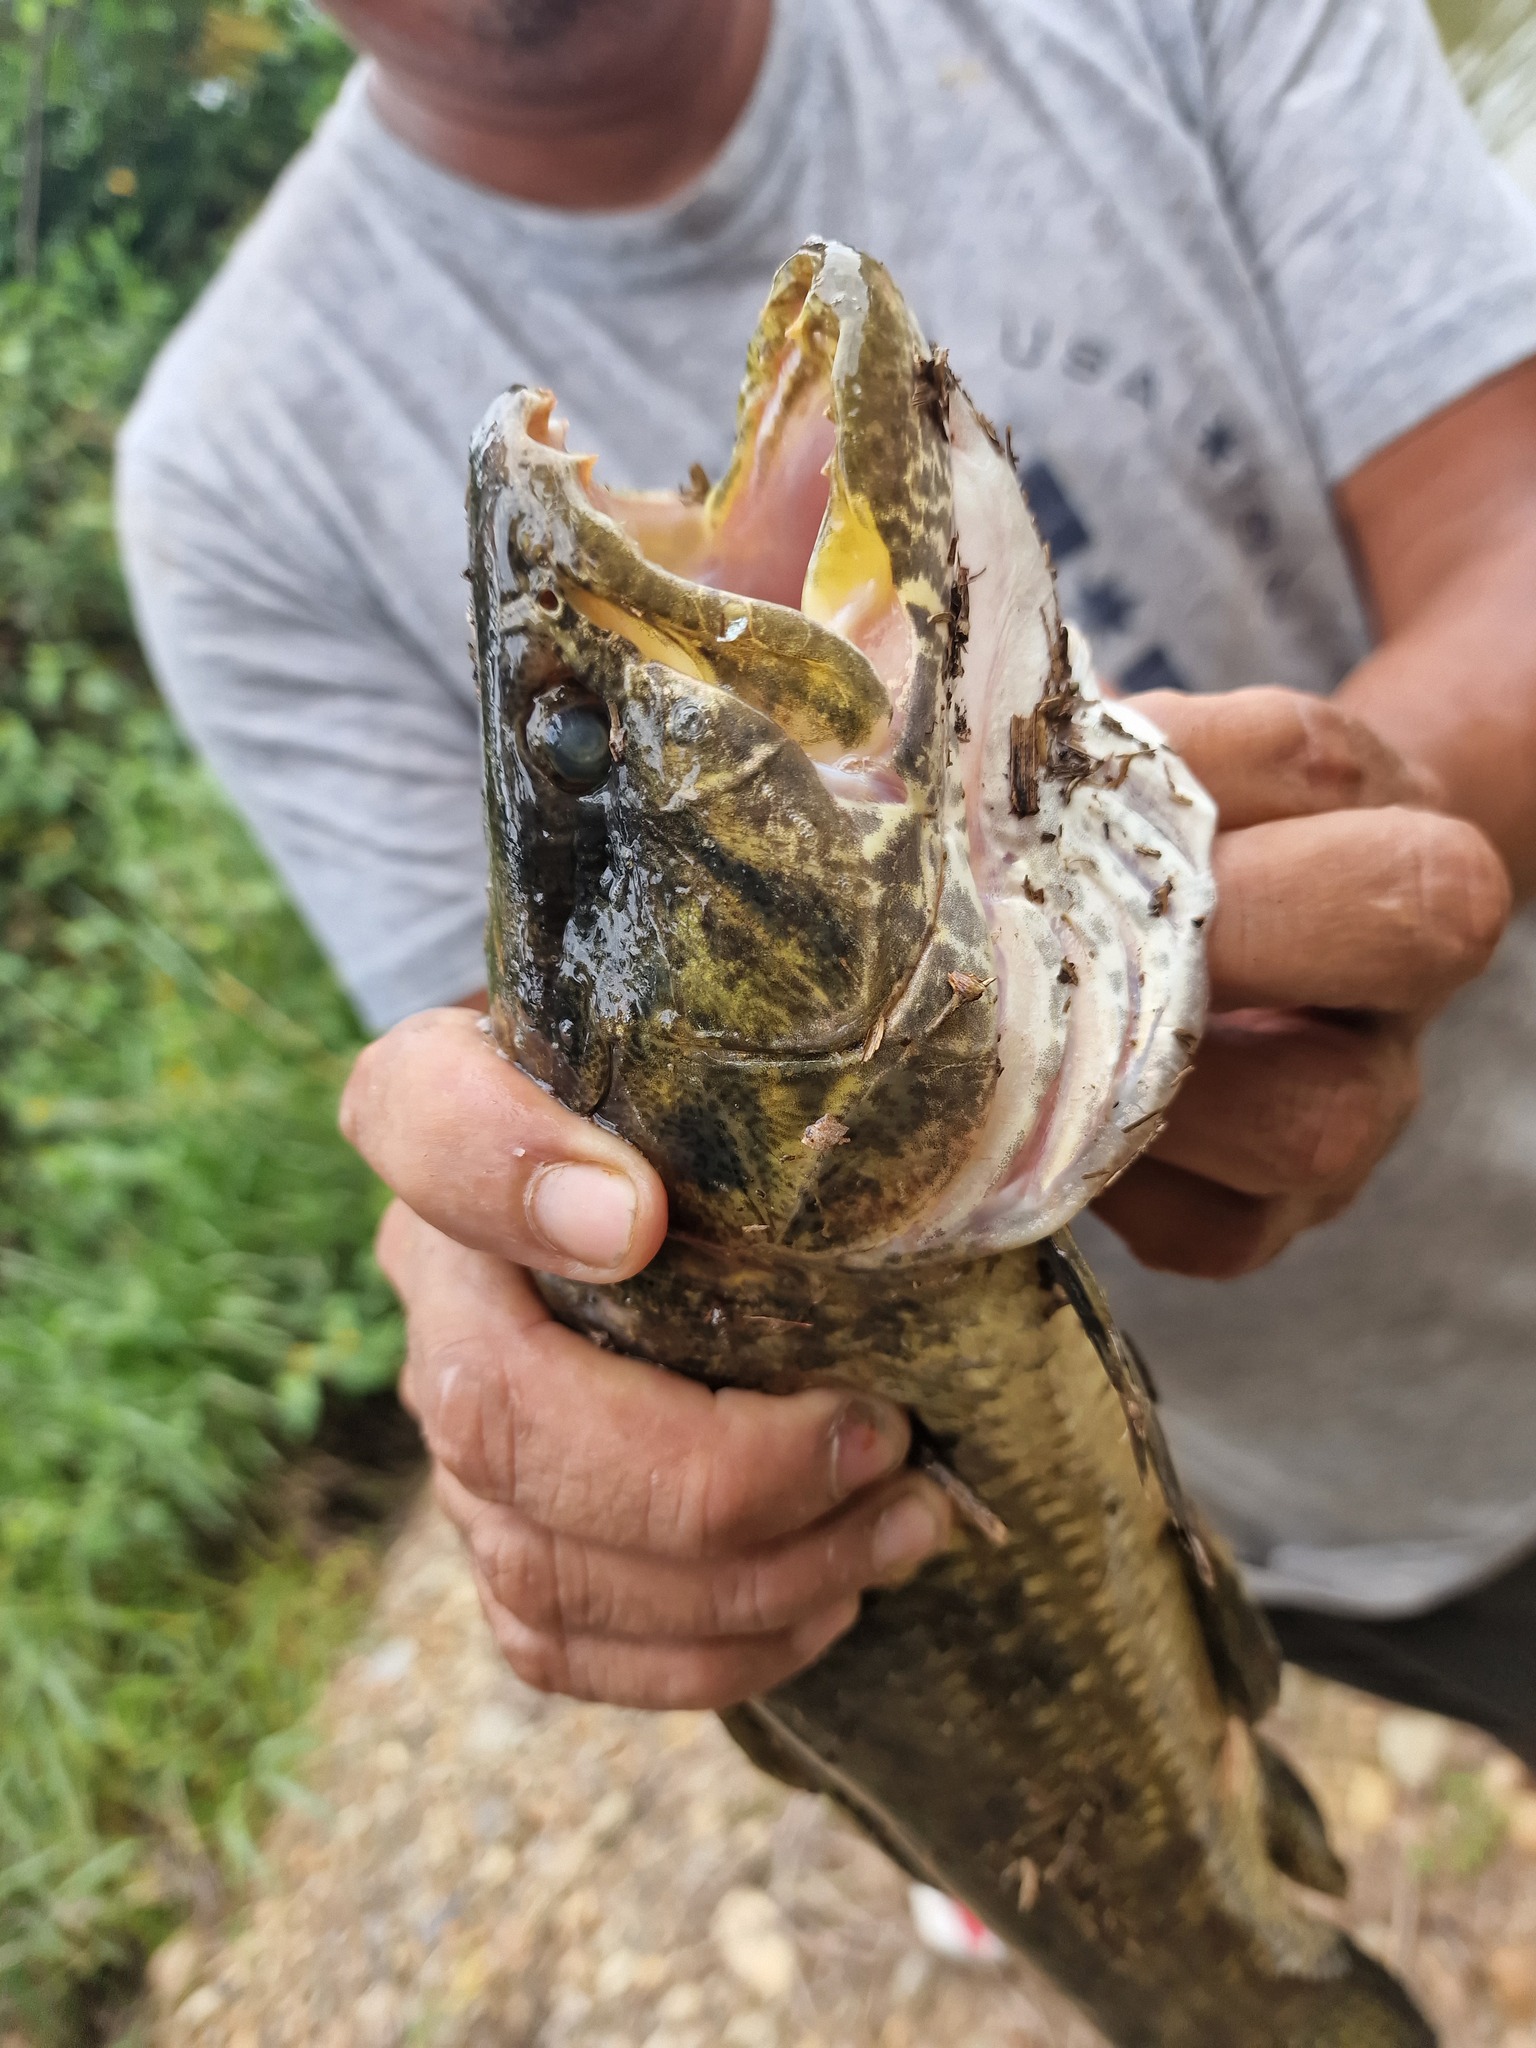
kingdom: Animalia
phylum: Chordata
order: Characiformes
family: Erythrinidae
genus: Hoplias
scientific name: Hoplias malabaricus
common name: Trahira
